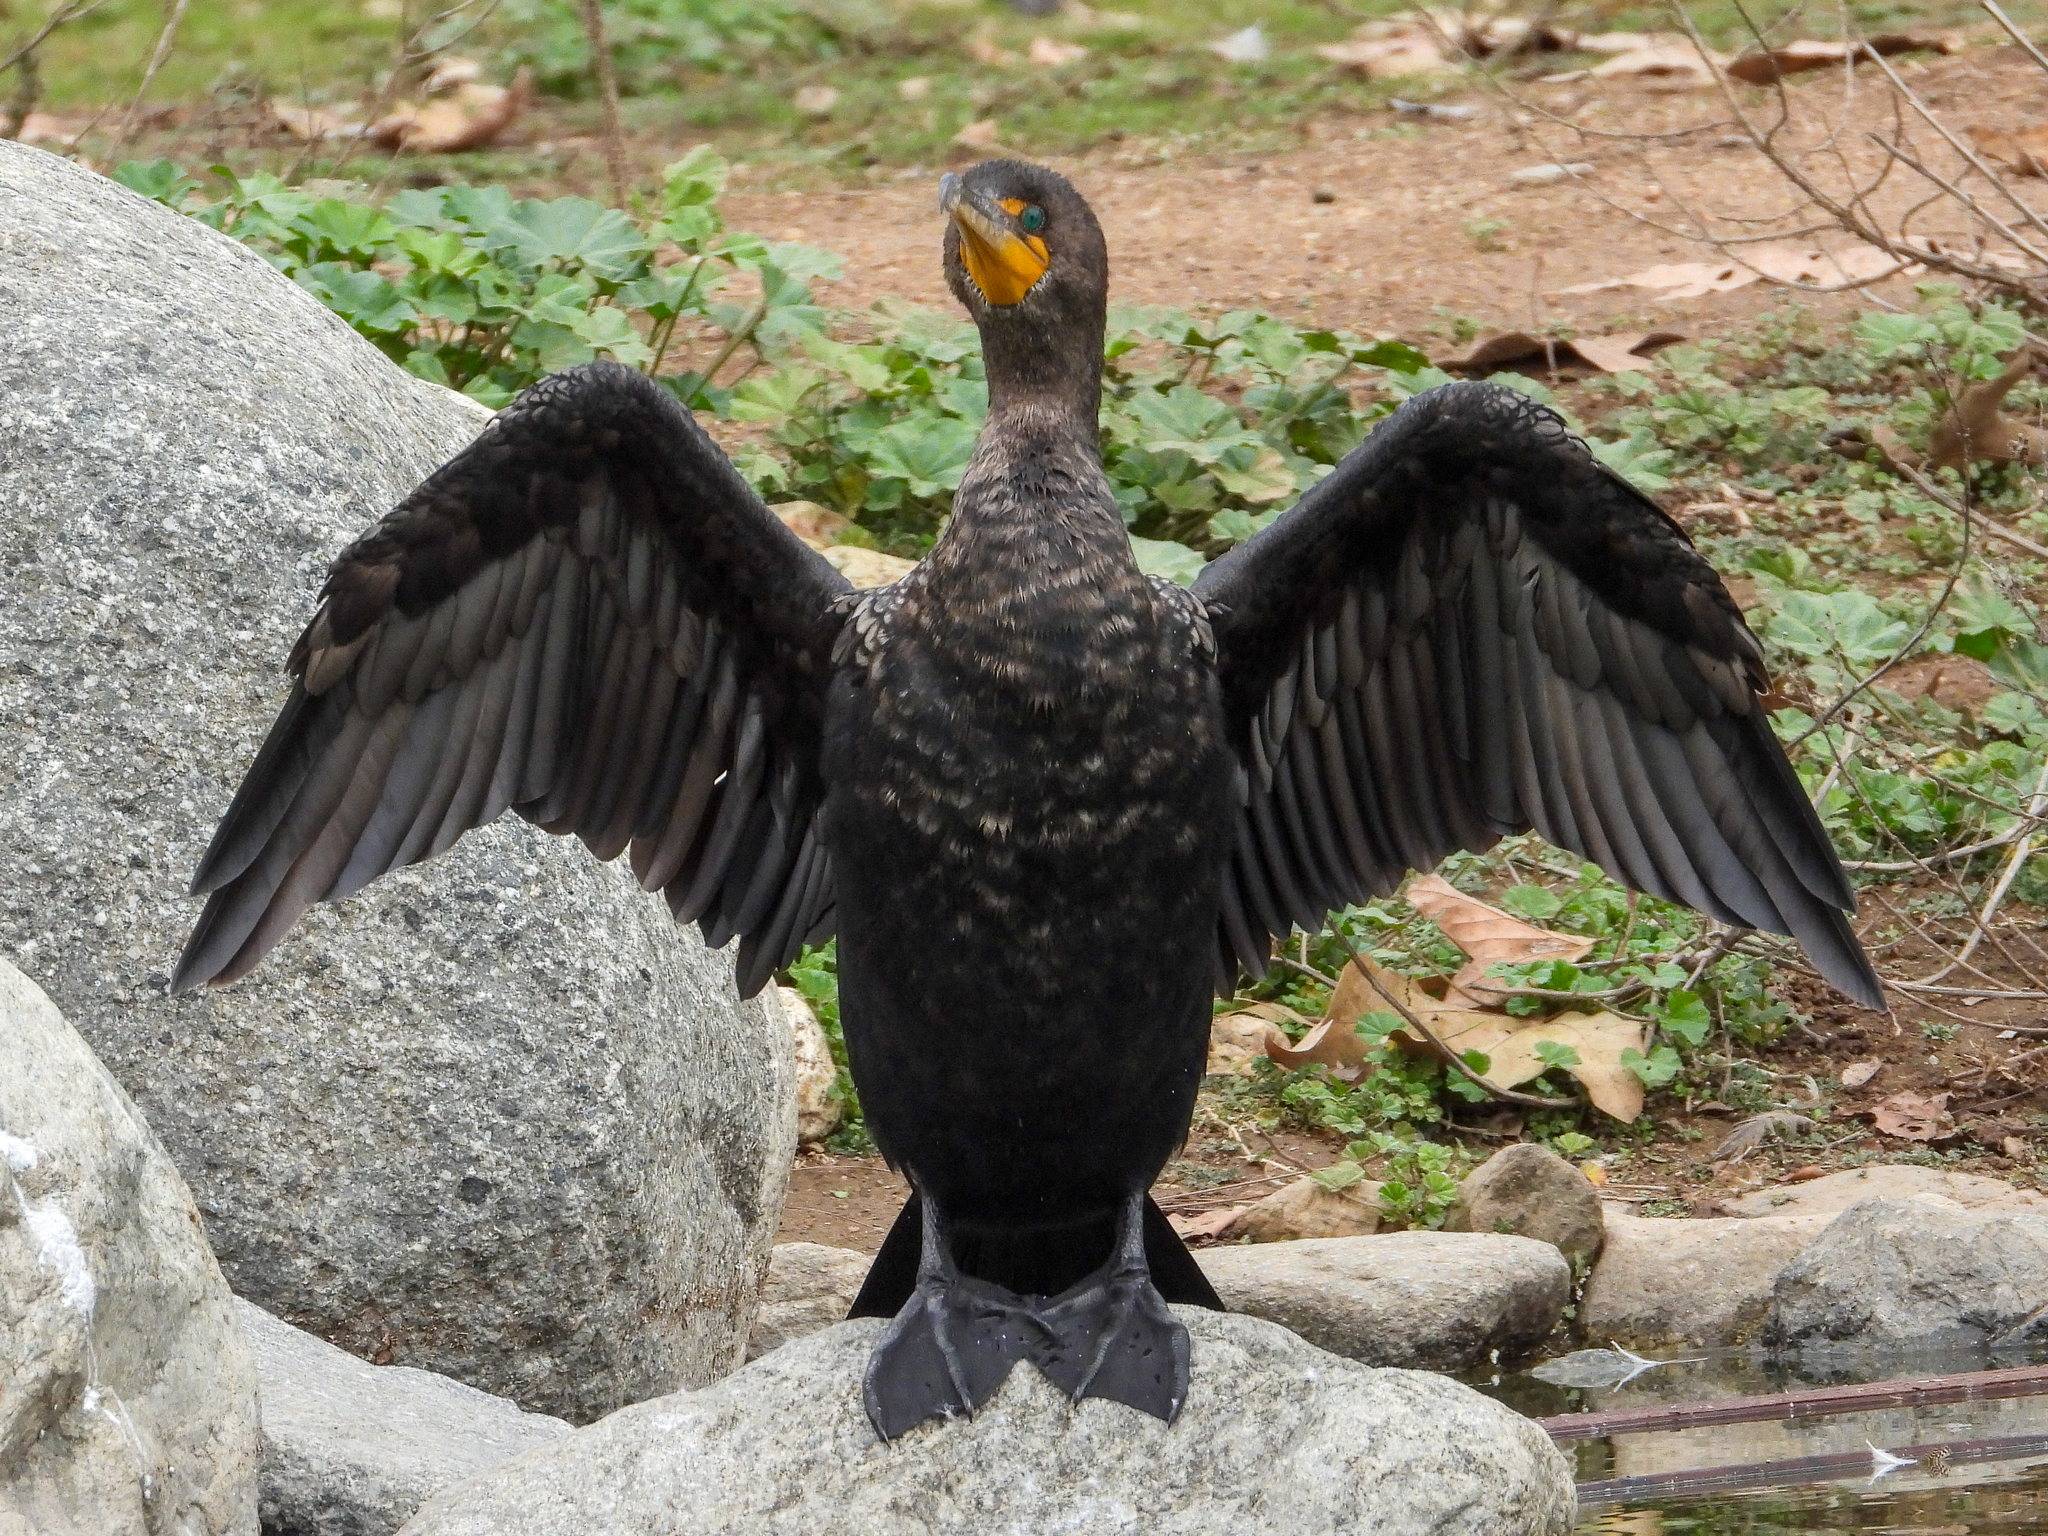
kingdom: Animalia
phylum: Chordata
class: Aves
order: Suliformes
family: Phalacrocoracidae
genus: Phalacrocorax
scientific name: Phalacrocorax auritus
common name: Double-crested cormorant
